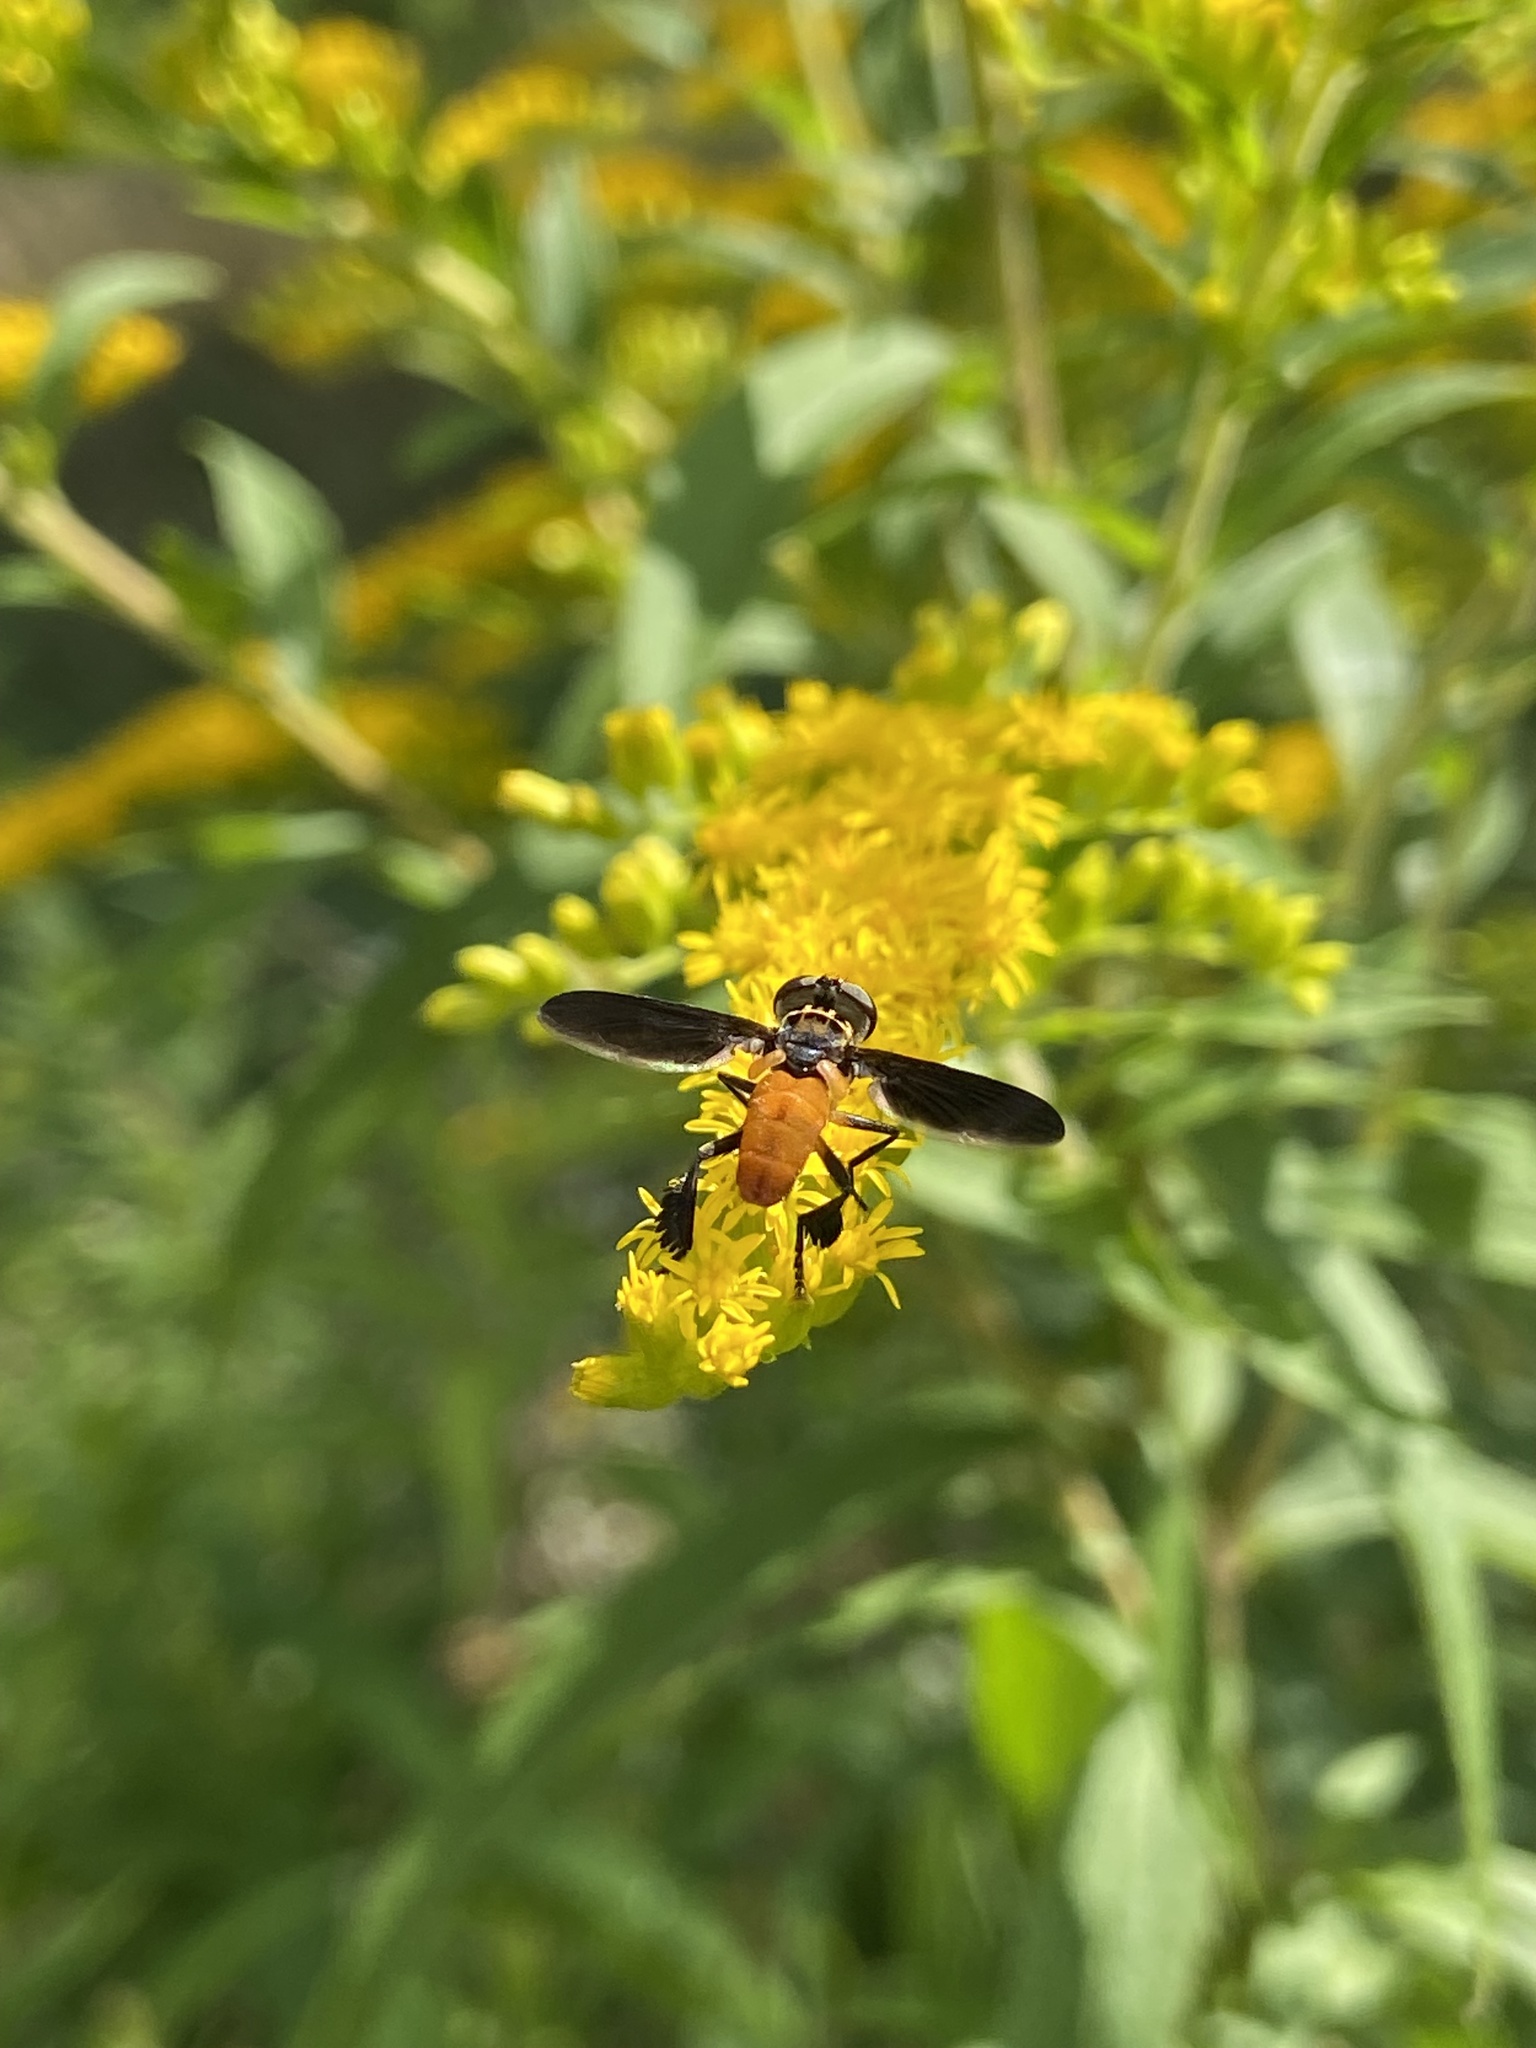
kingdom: Animalia
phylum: Arthropoda
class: Insecta
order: Diptera
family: Tachinidae
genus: Trichopoda
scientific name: Trichopoda pennipes
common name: Tachinid fly
